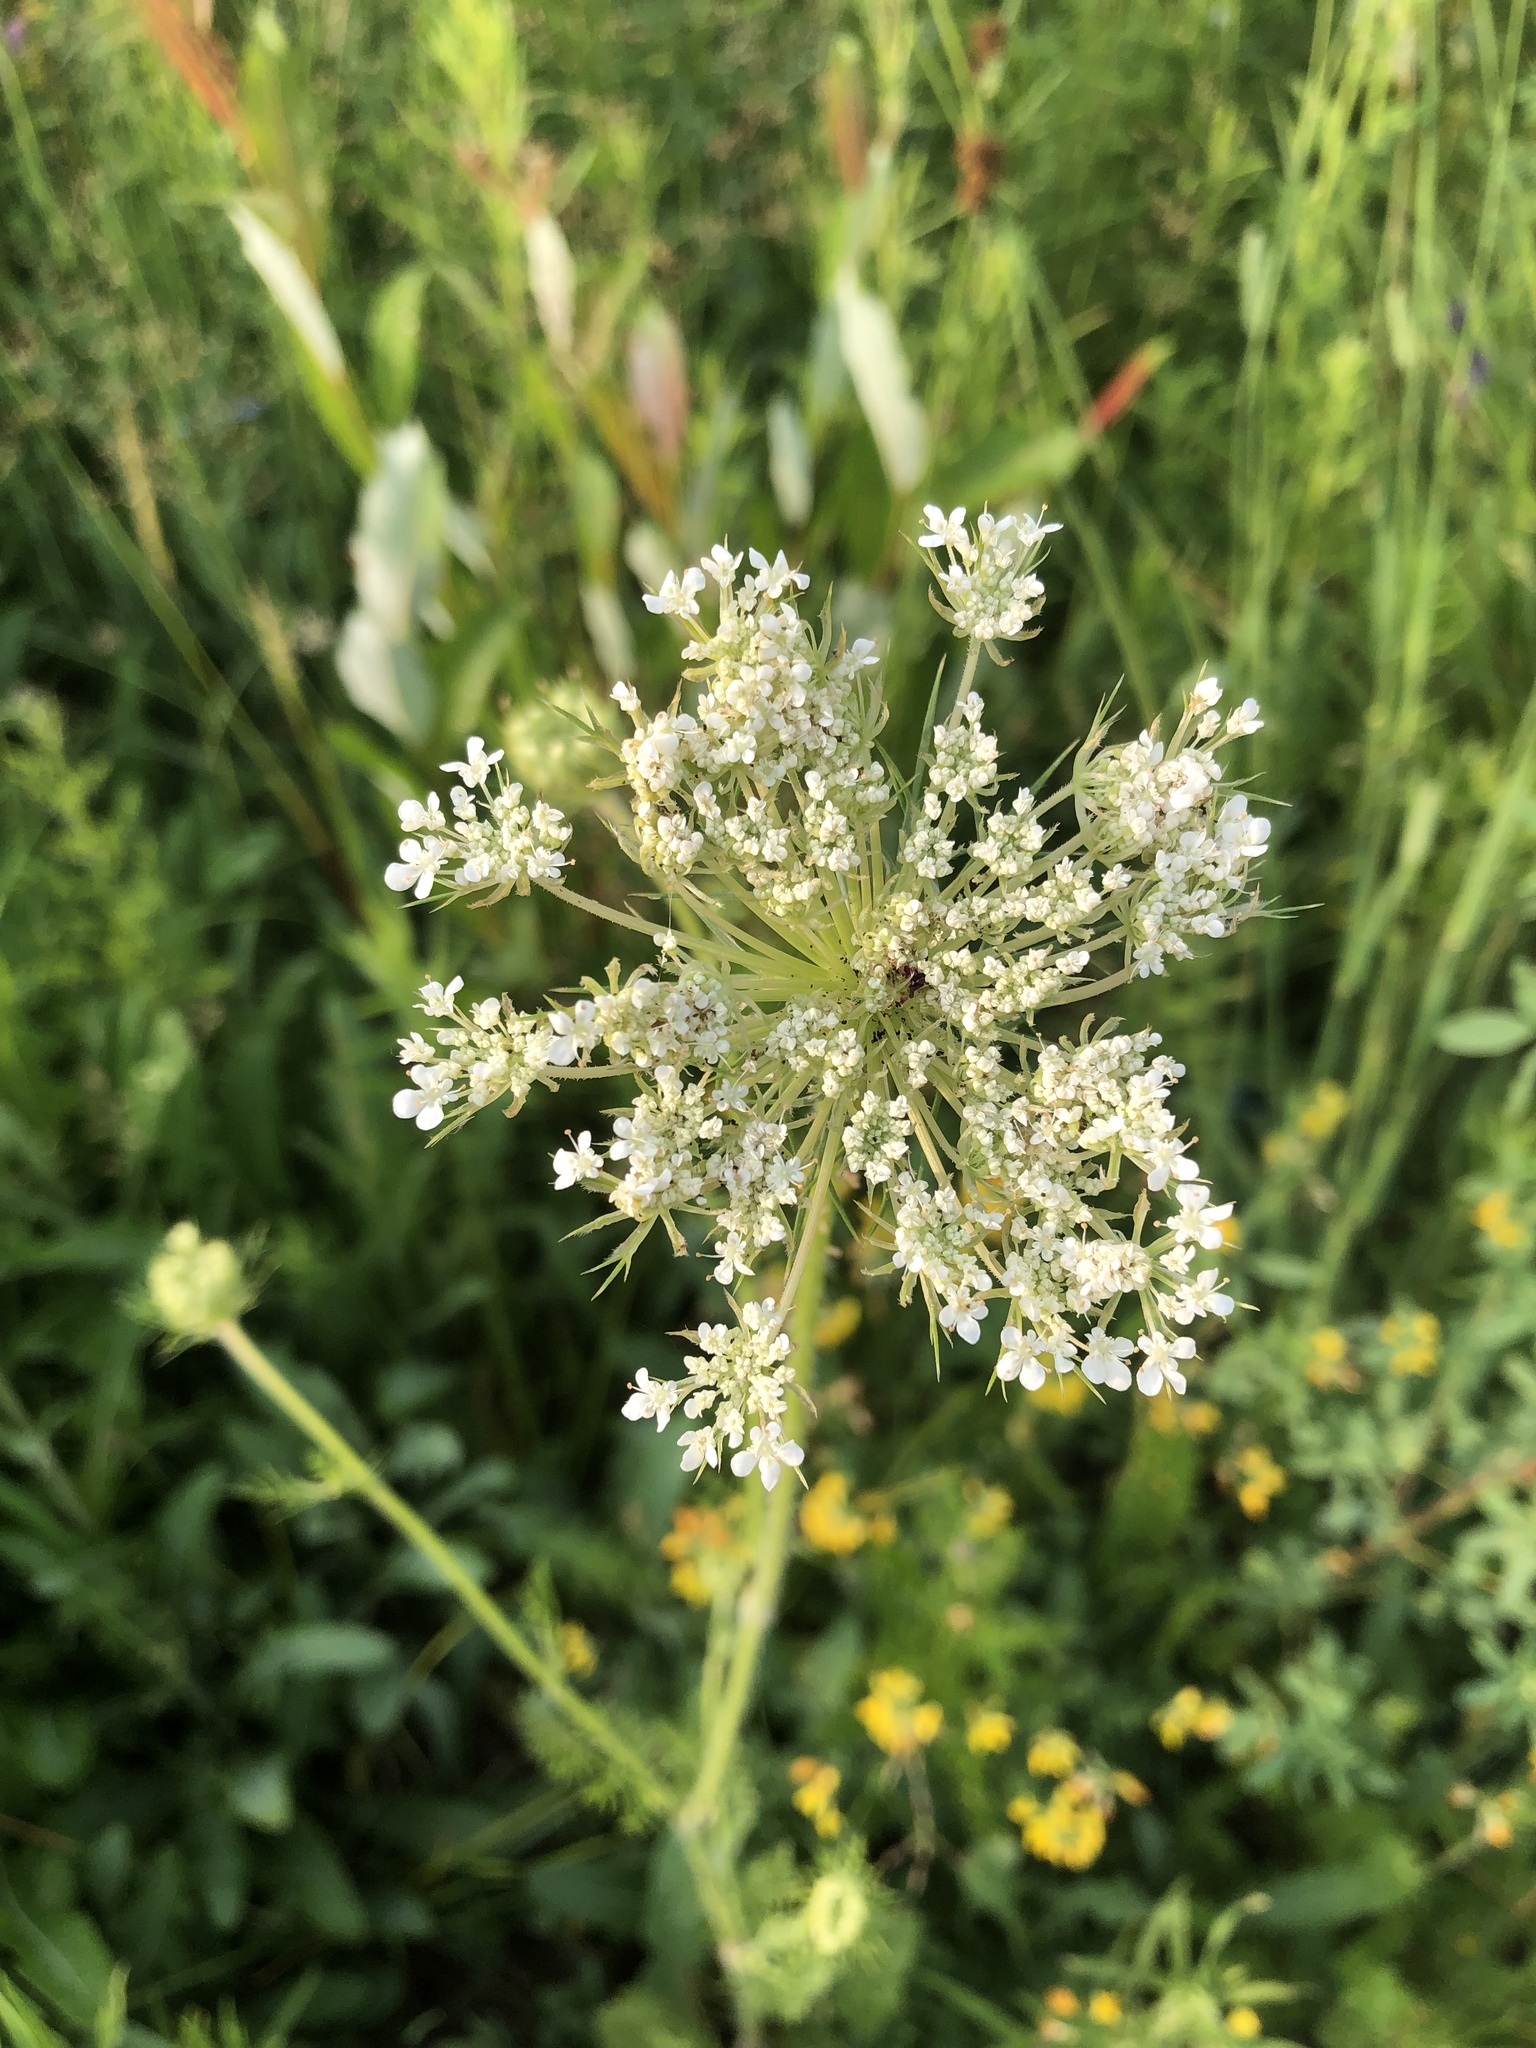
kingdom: Plantae
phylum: Tracheophyta
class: Magnoliopsida
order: Apiales
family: Apiaceae
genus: Daucus
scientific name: Daucus carota
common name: Wild carrot
